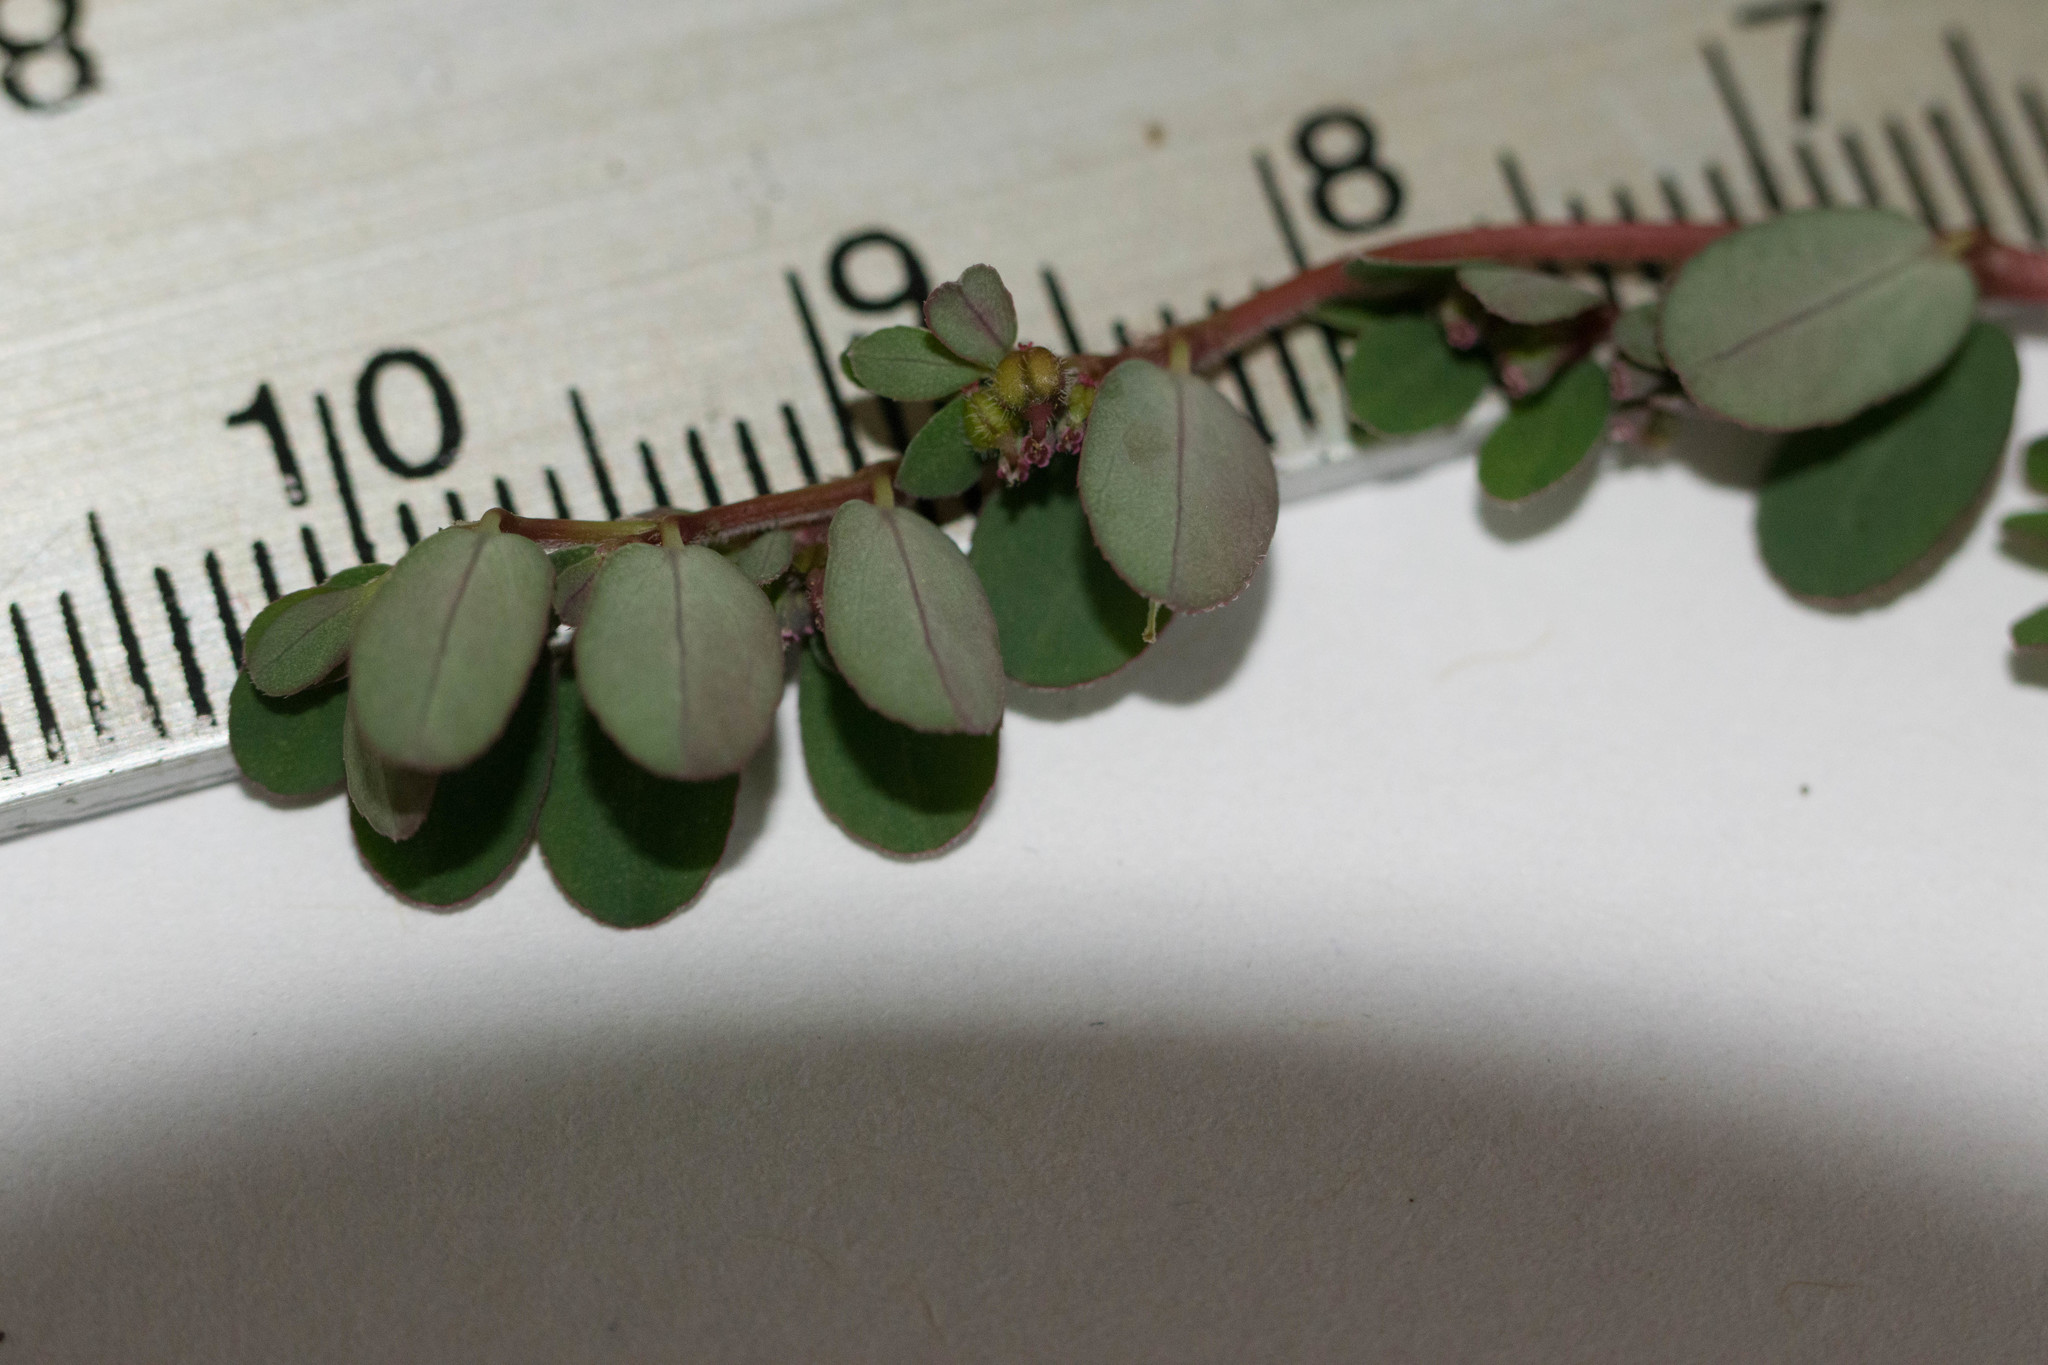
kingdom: Plantae
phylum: Tracheophyta
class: Magnoliopsida
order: Malpighiales
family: Euphorbiaceae
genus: Euphorbia
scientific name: Euphorbia prostrata
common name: Prostrate sandmat
